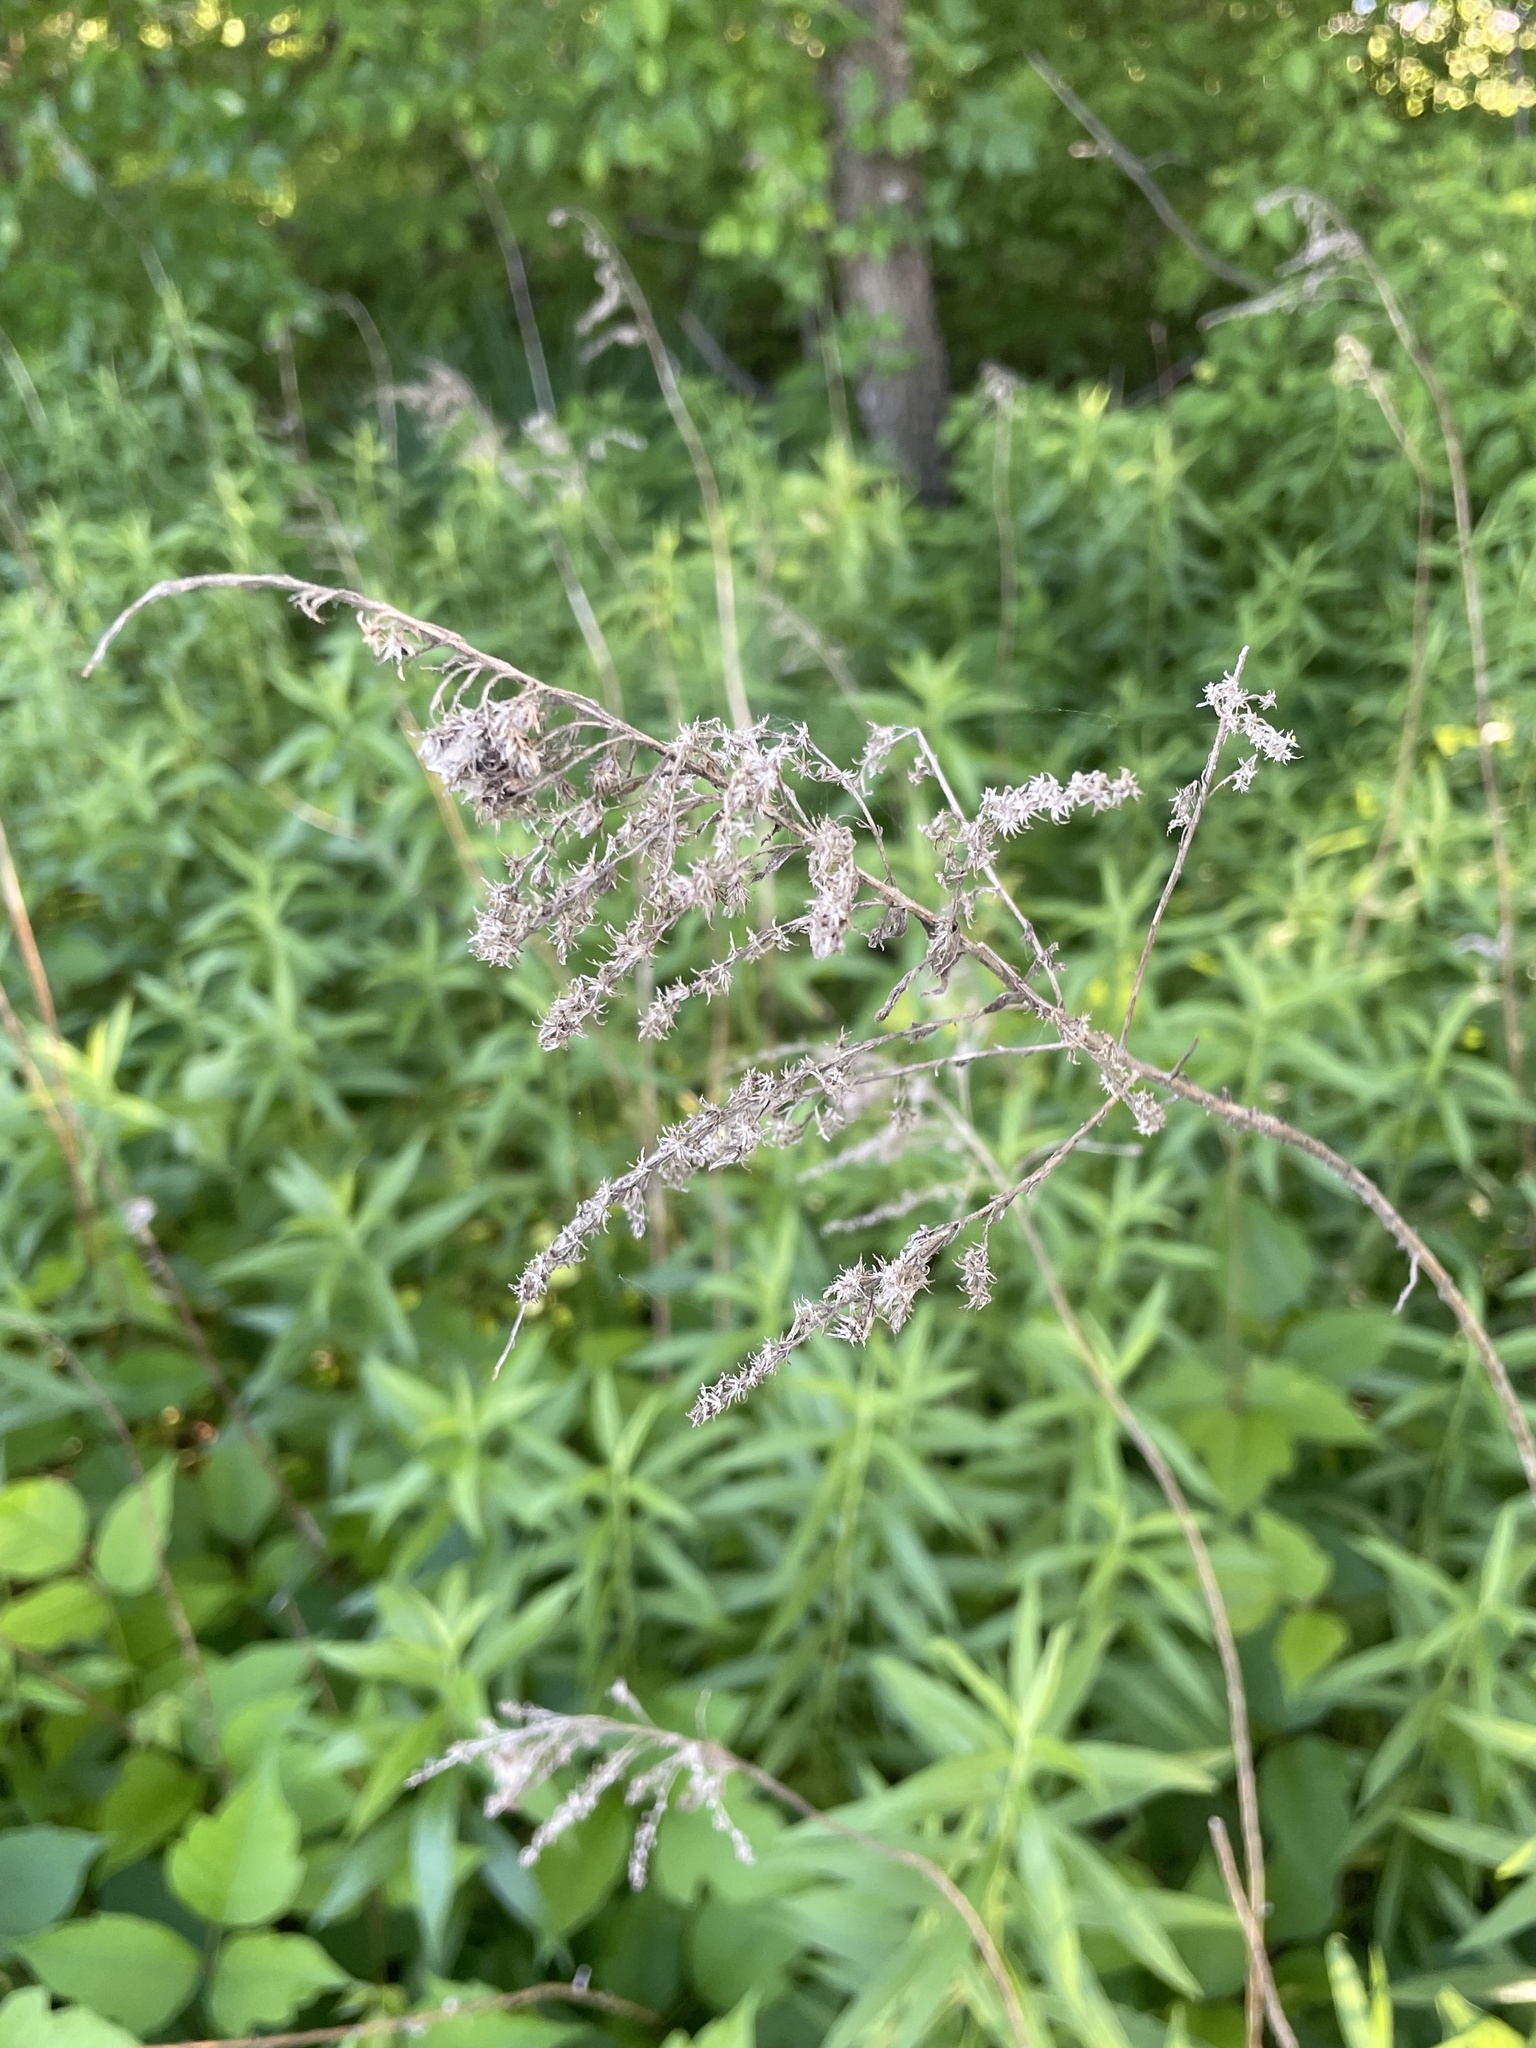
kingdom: Plantae
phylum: Tracheophyta
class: Magnoliopsida
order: Asterales
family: Asteraceae
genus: Solidago
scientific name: Solidago altissima
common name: Late goldenrod
